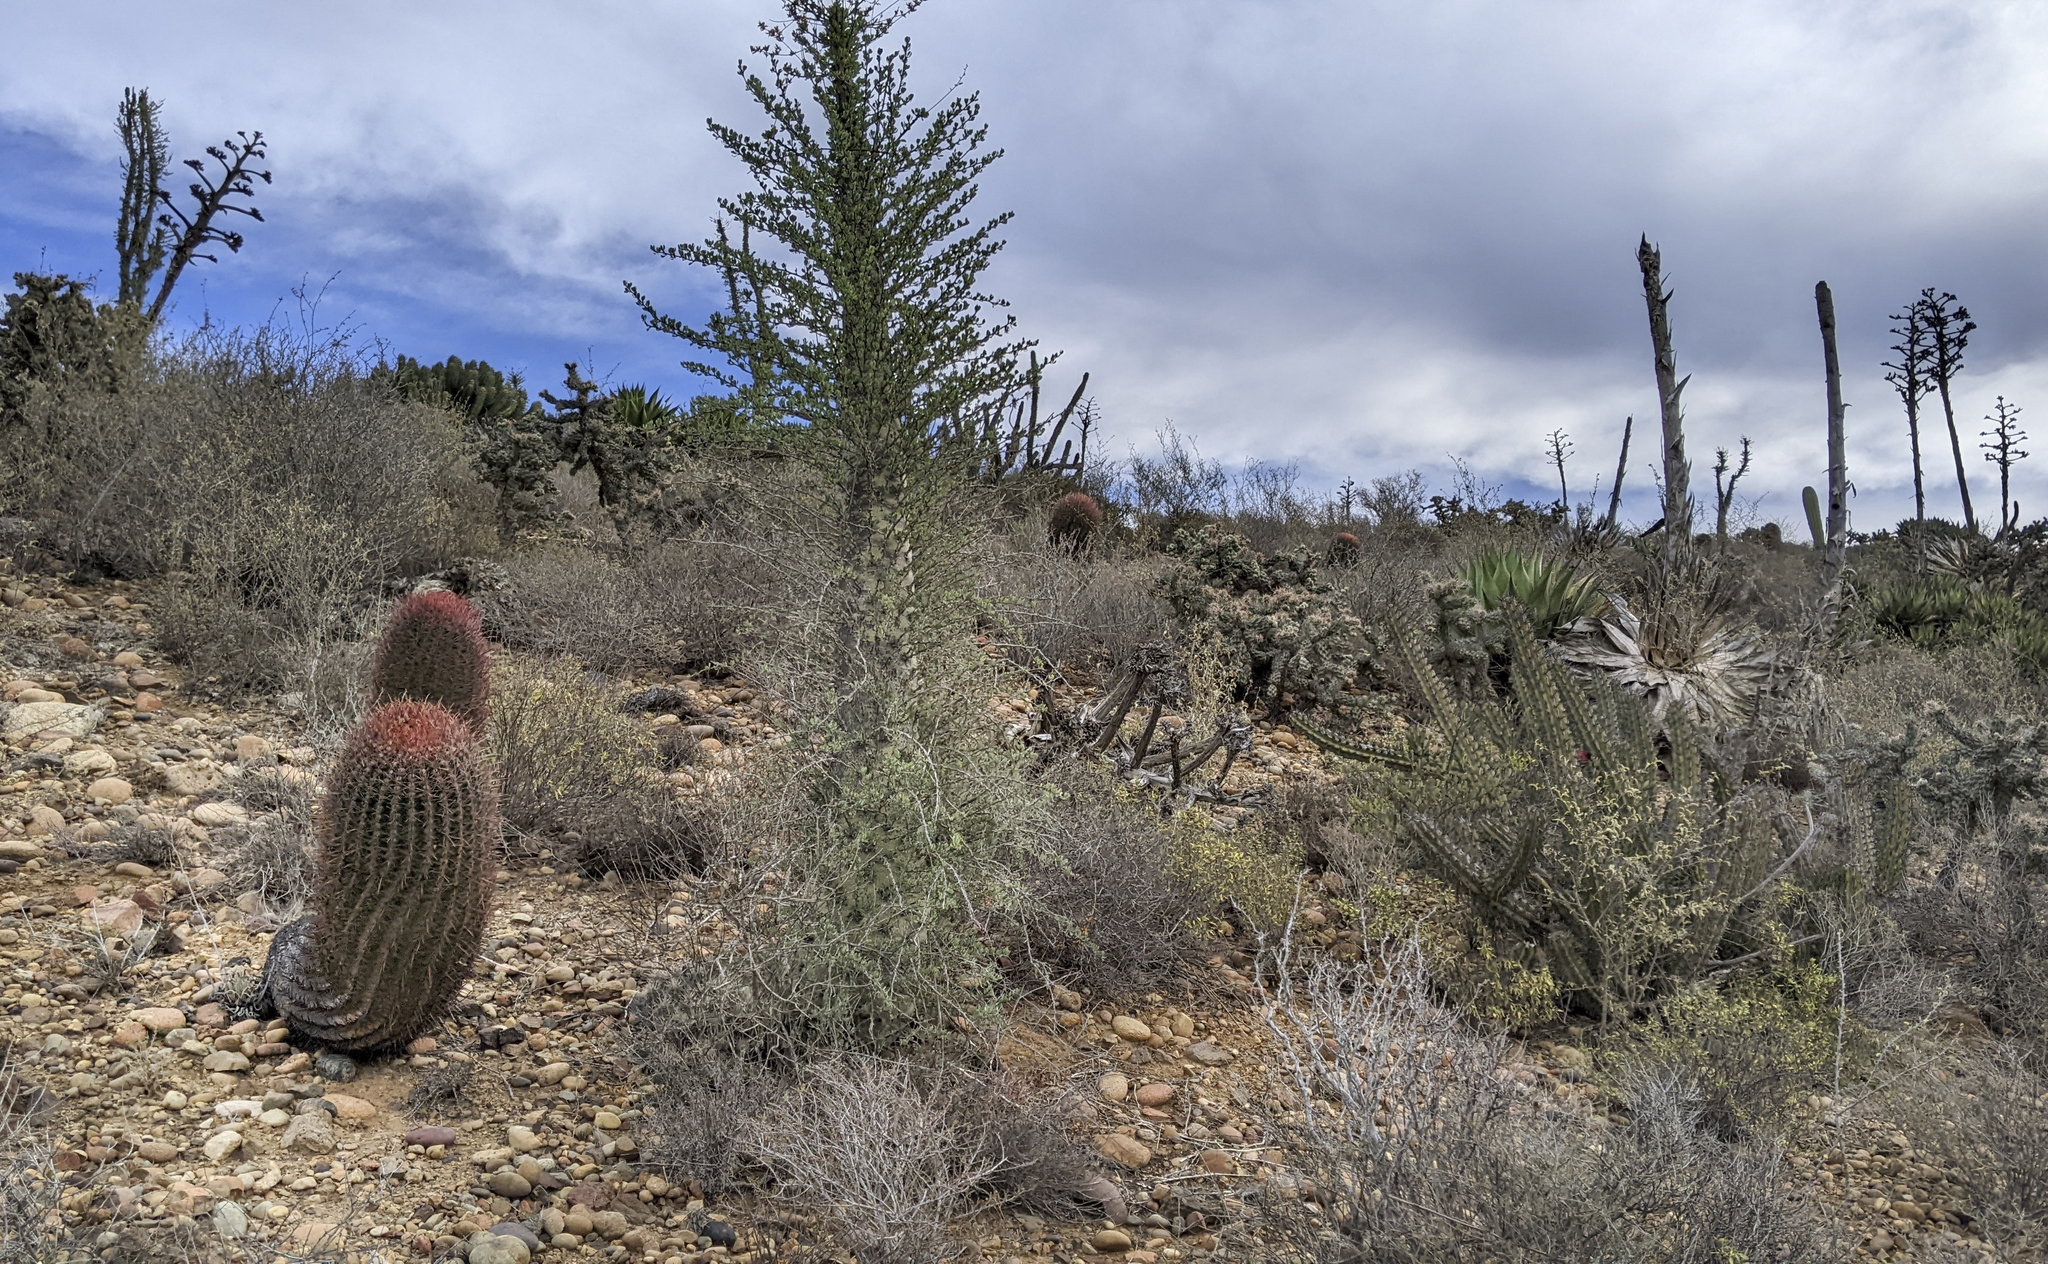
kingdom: Plantae
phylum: Tracheophyta
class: Magnoliopsida
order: Ericales
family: Fouquieriaceae
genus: Fouquieria
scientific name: Fouquieria columnaris
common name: Boojumtree
